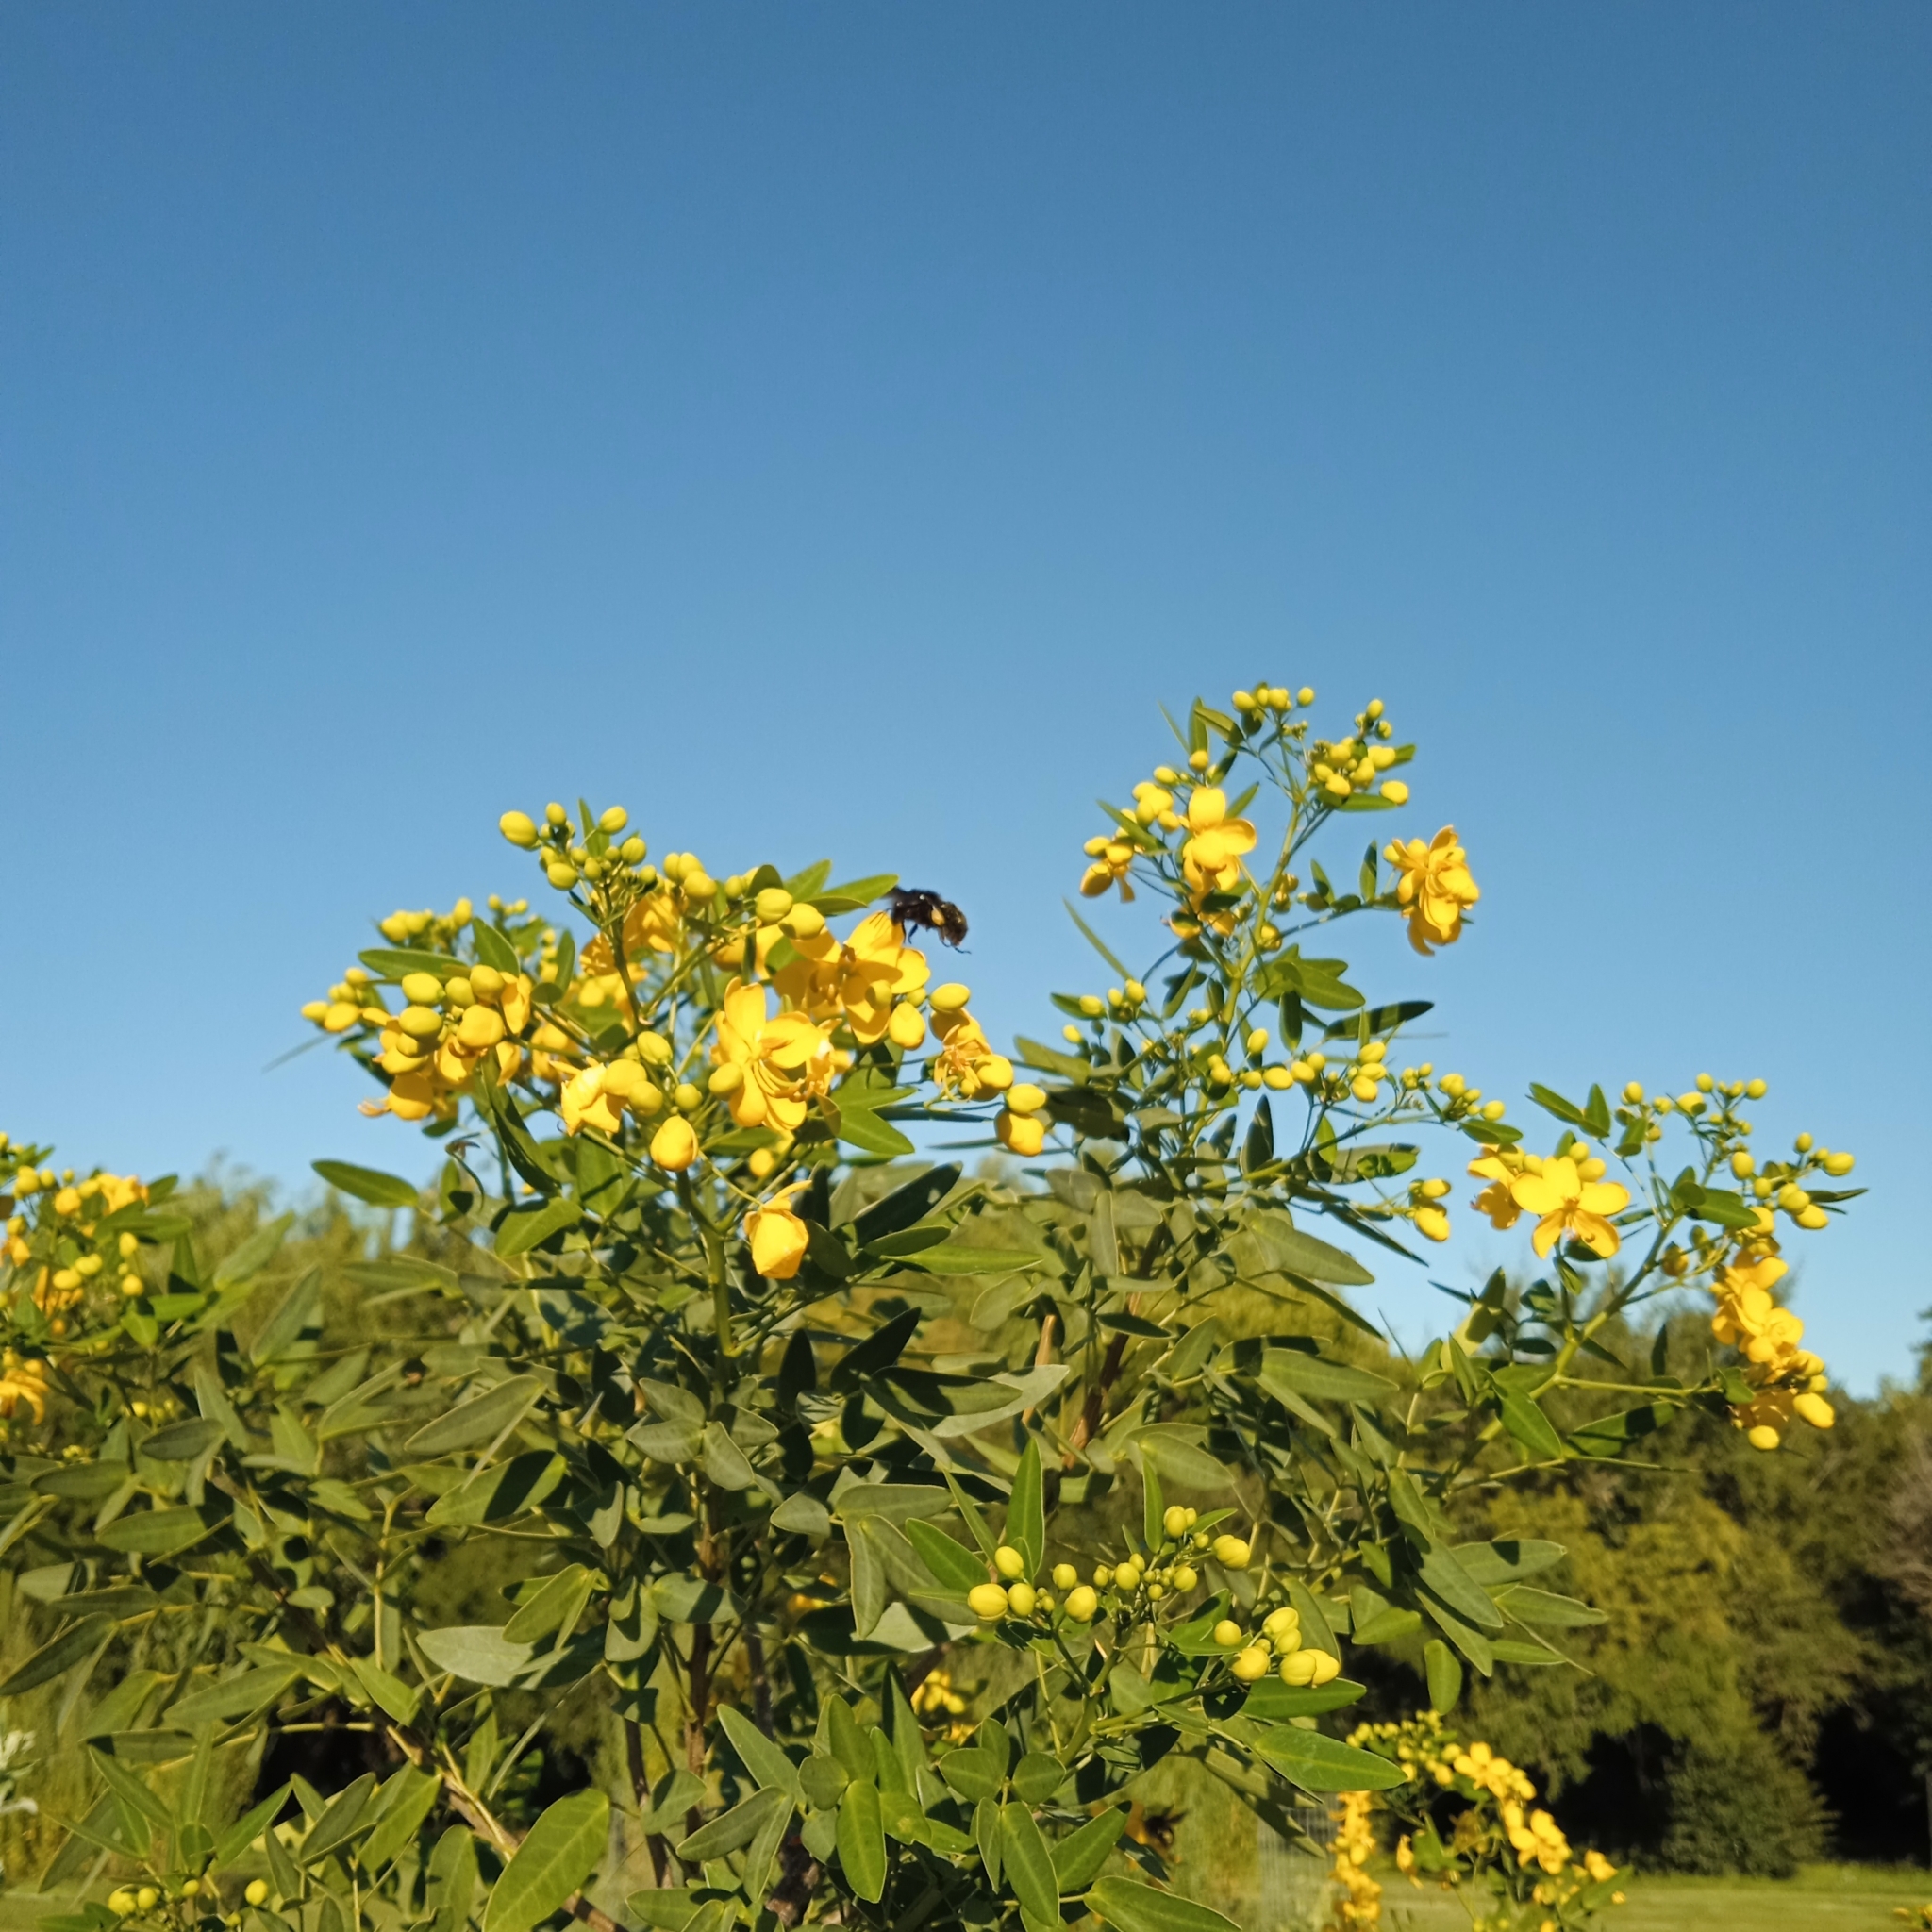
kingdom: Animalia
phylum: Arthropoda
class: Insecta
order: Hymenoptera
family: Apidae
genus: Bombus
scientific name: Bombus pauloensis
